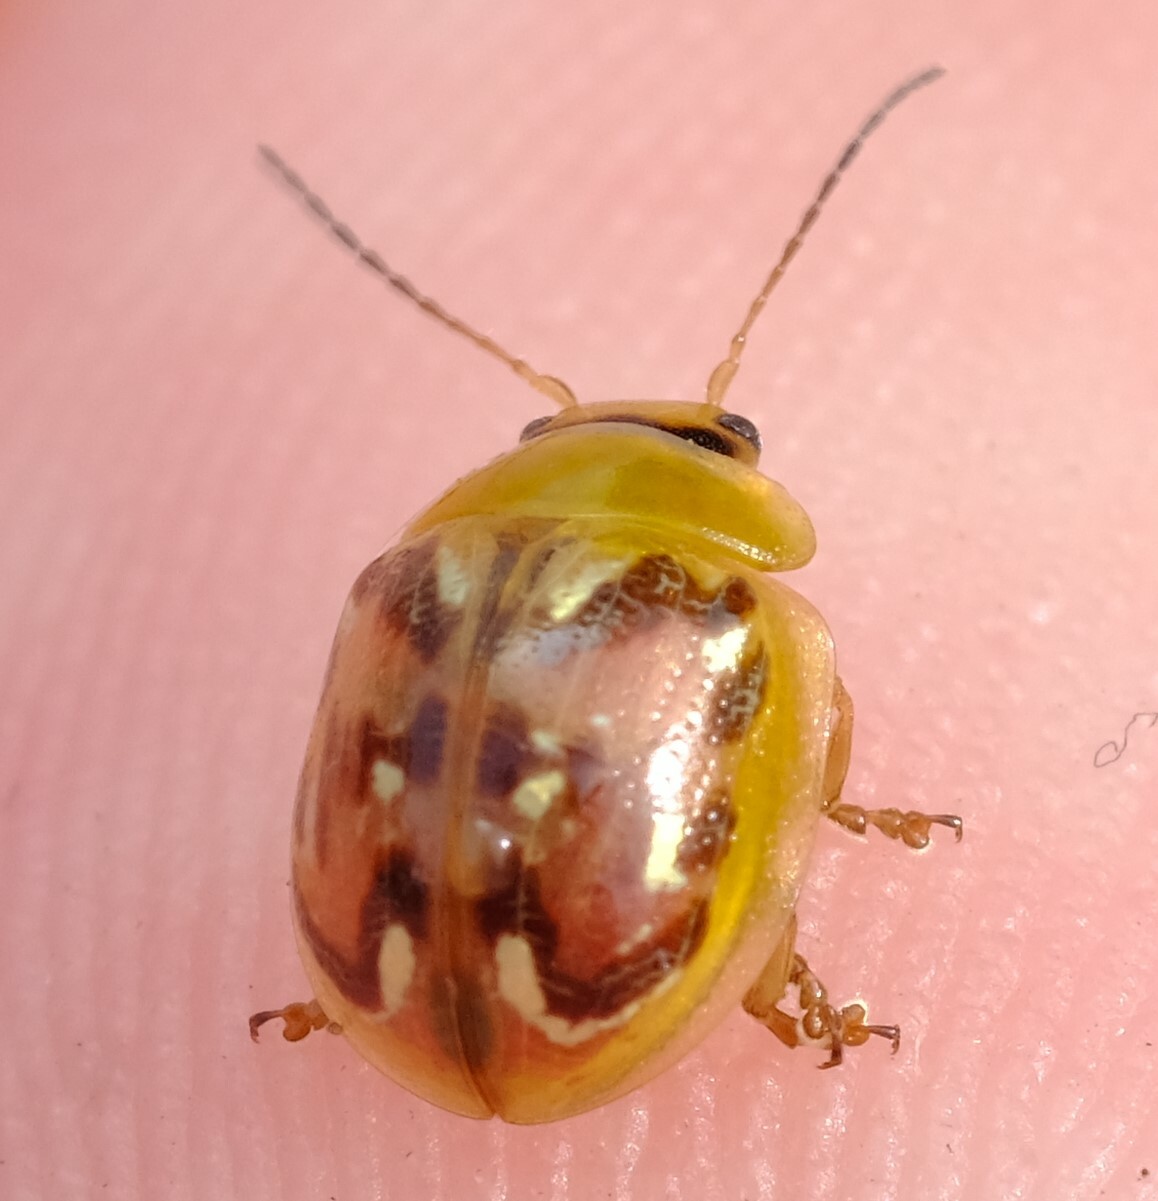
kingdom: Animalia
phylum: Arthropoda
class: Insecta
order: Coleoptera
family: Chrysomelidae
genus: Paropsisterna
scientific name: Paropsisterna
